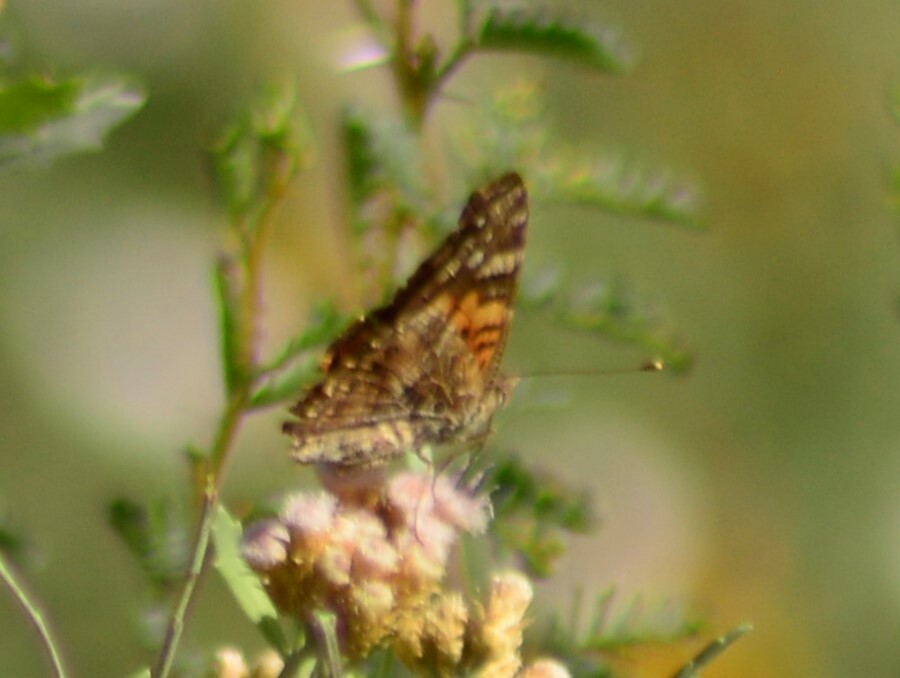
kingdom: Animalia
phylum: Arthropoda
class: Insecta
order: Lepidoptera
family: Nymphalidae
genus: Vanessa
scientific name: Vanessa carye
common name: Subtropical lady
